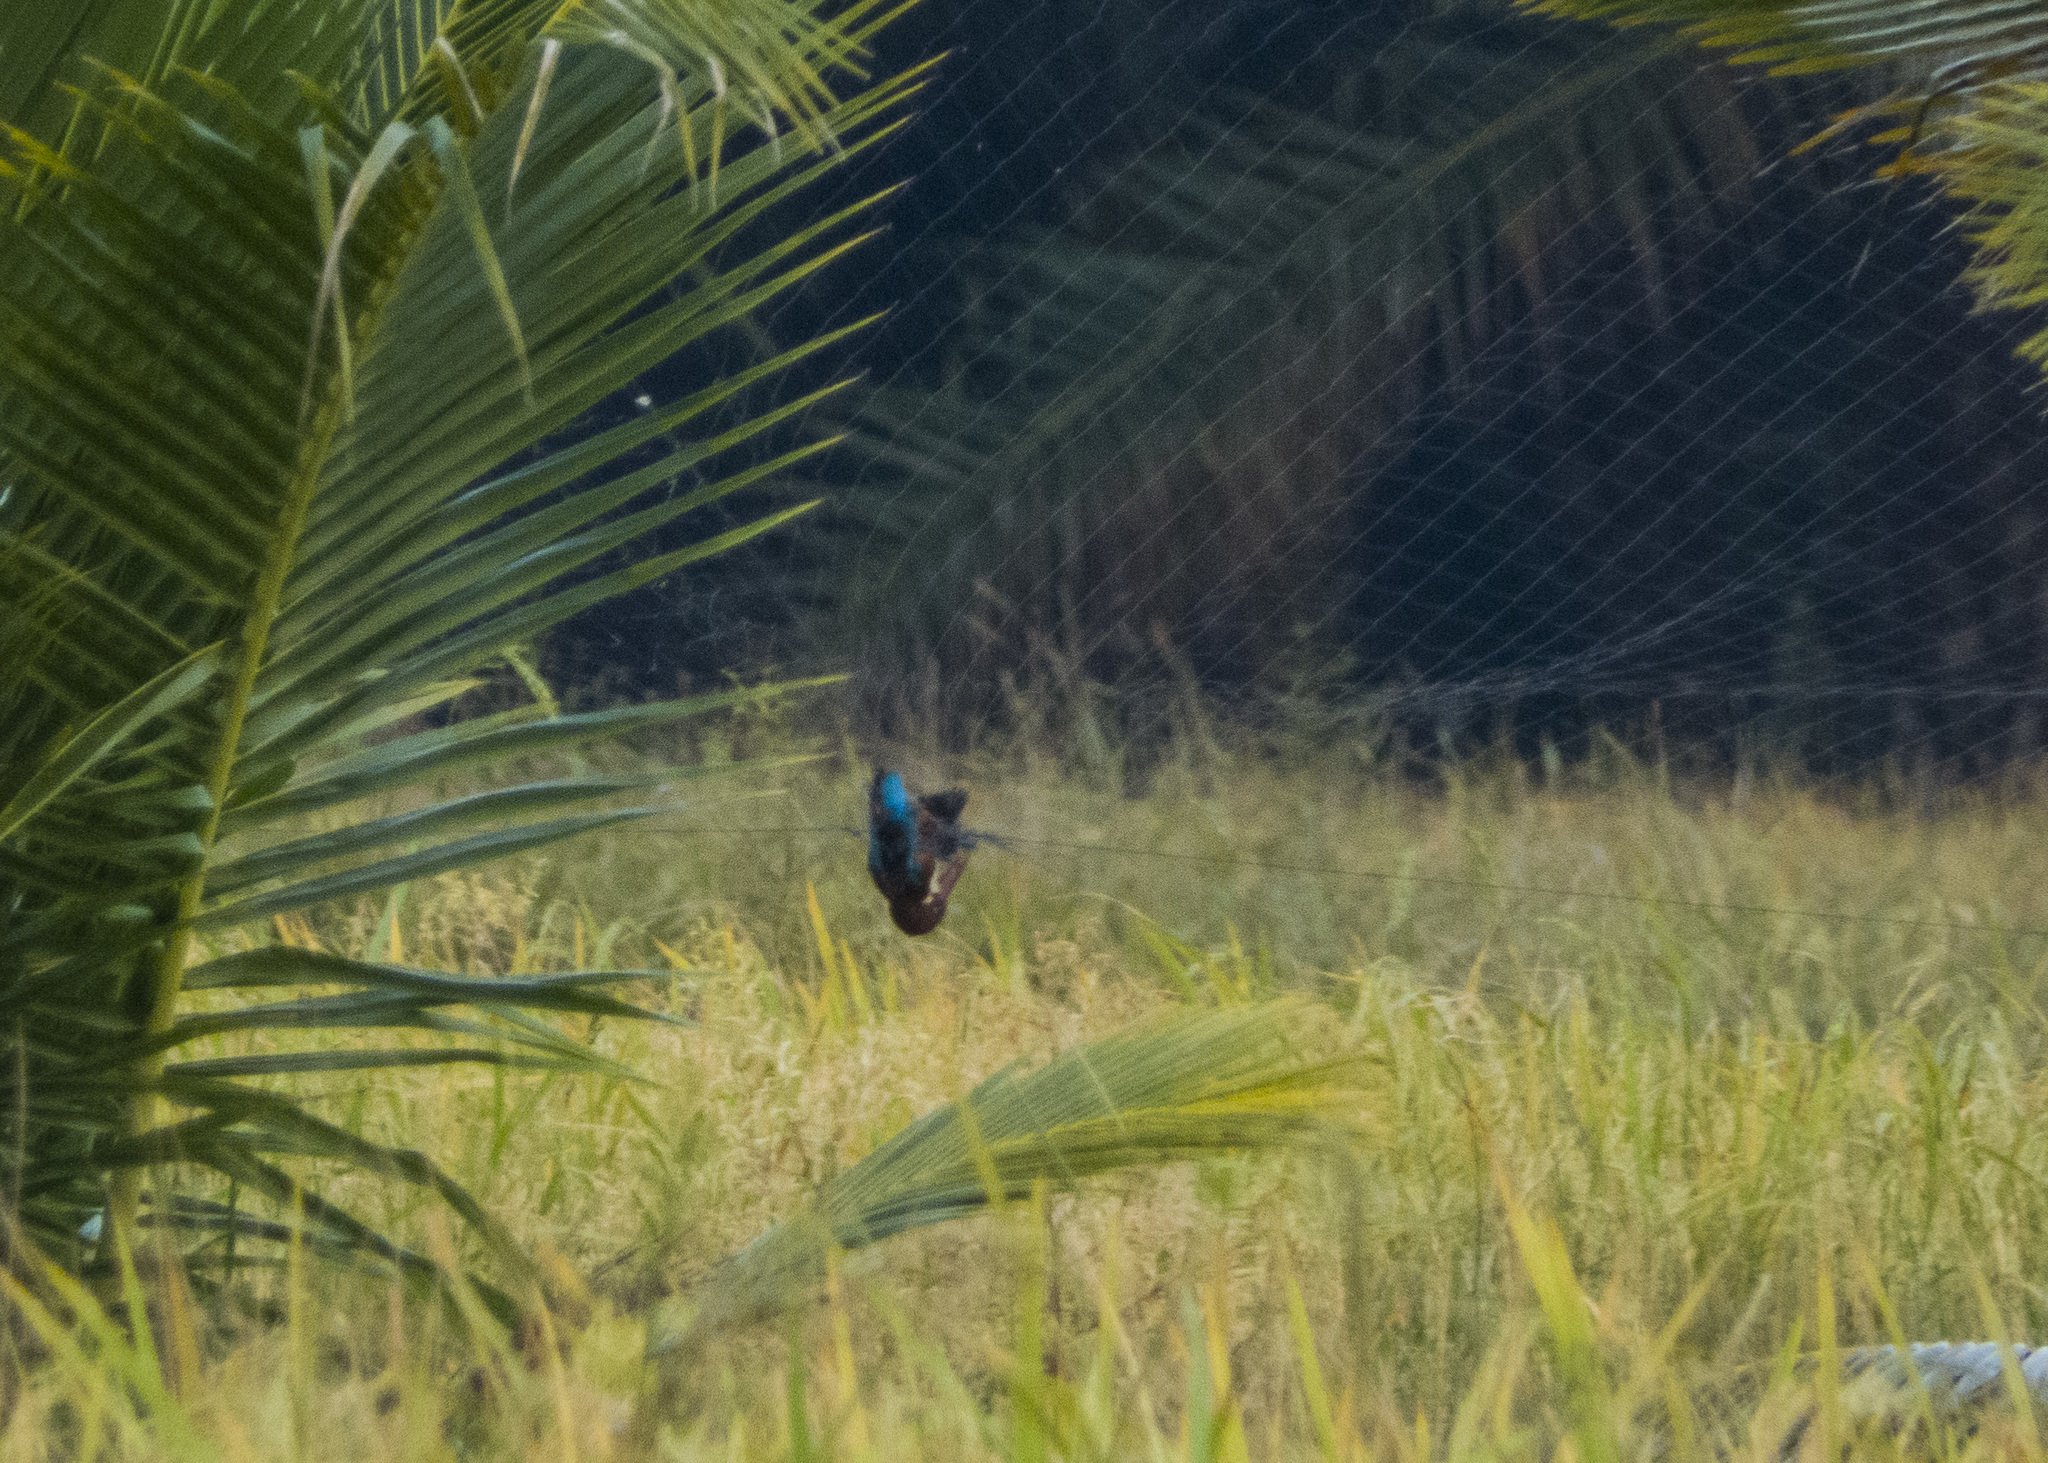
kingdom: Animalia
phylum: Chordata
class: Aves
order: Coraciiformes
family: Alcedinidae
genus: Halcyon
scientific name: Halcyon smyrnensis
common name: White-throated kingfisher
